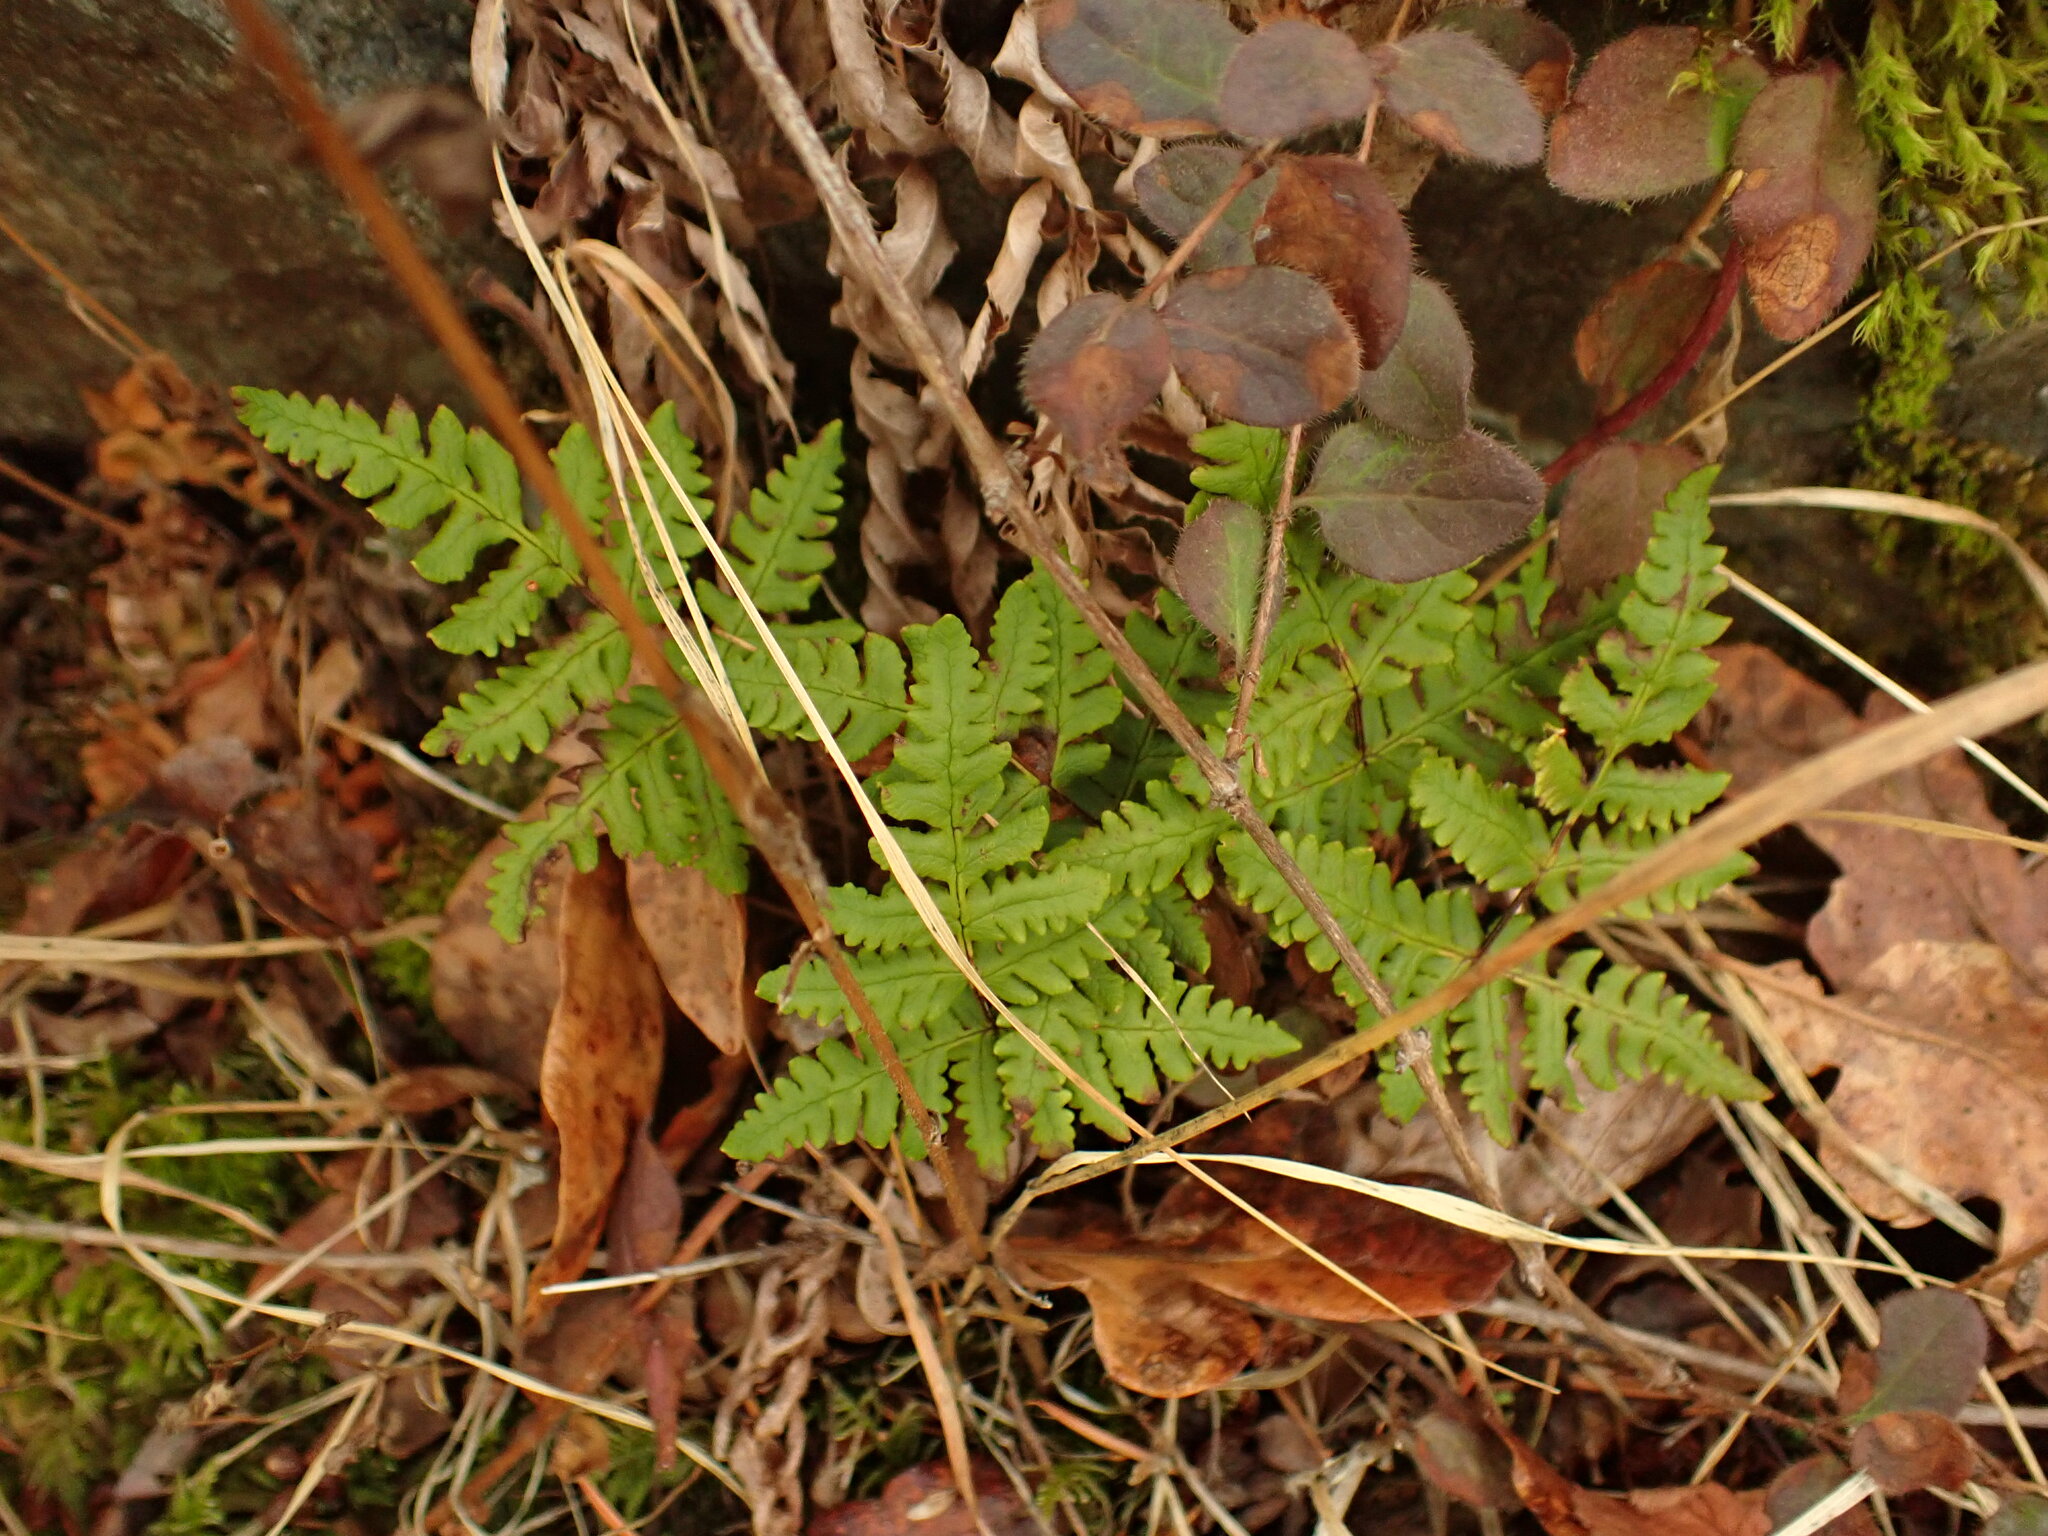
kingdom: Plantae
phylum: Tracheophyta
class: Polypodiopsida
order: Polypodiales
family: Pteridaceae
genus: Pentagramma
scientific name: Pentagramma triangularis
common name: Gold fern
